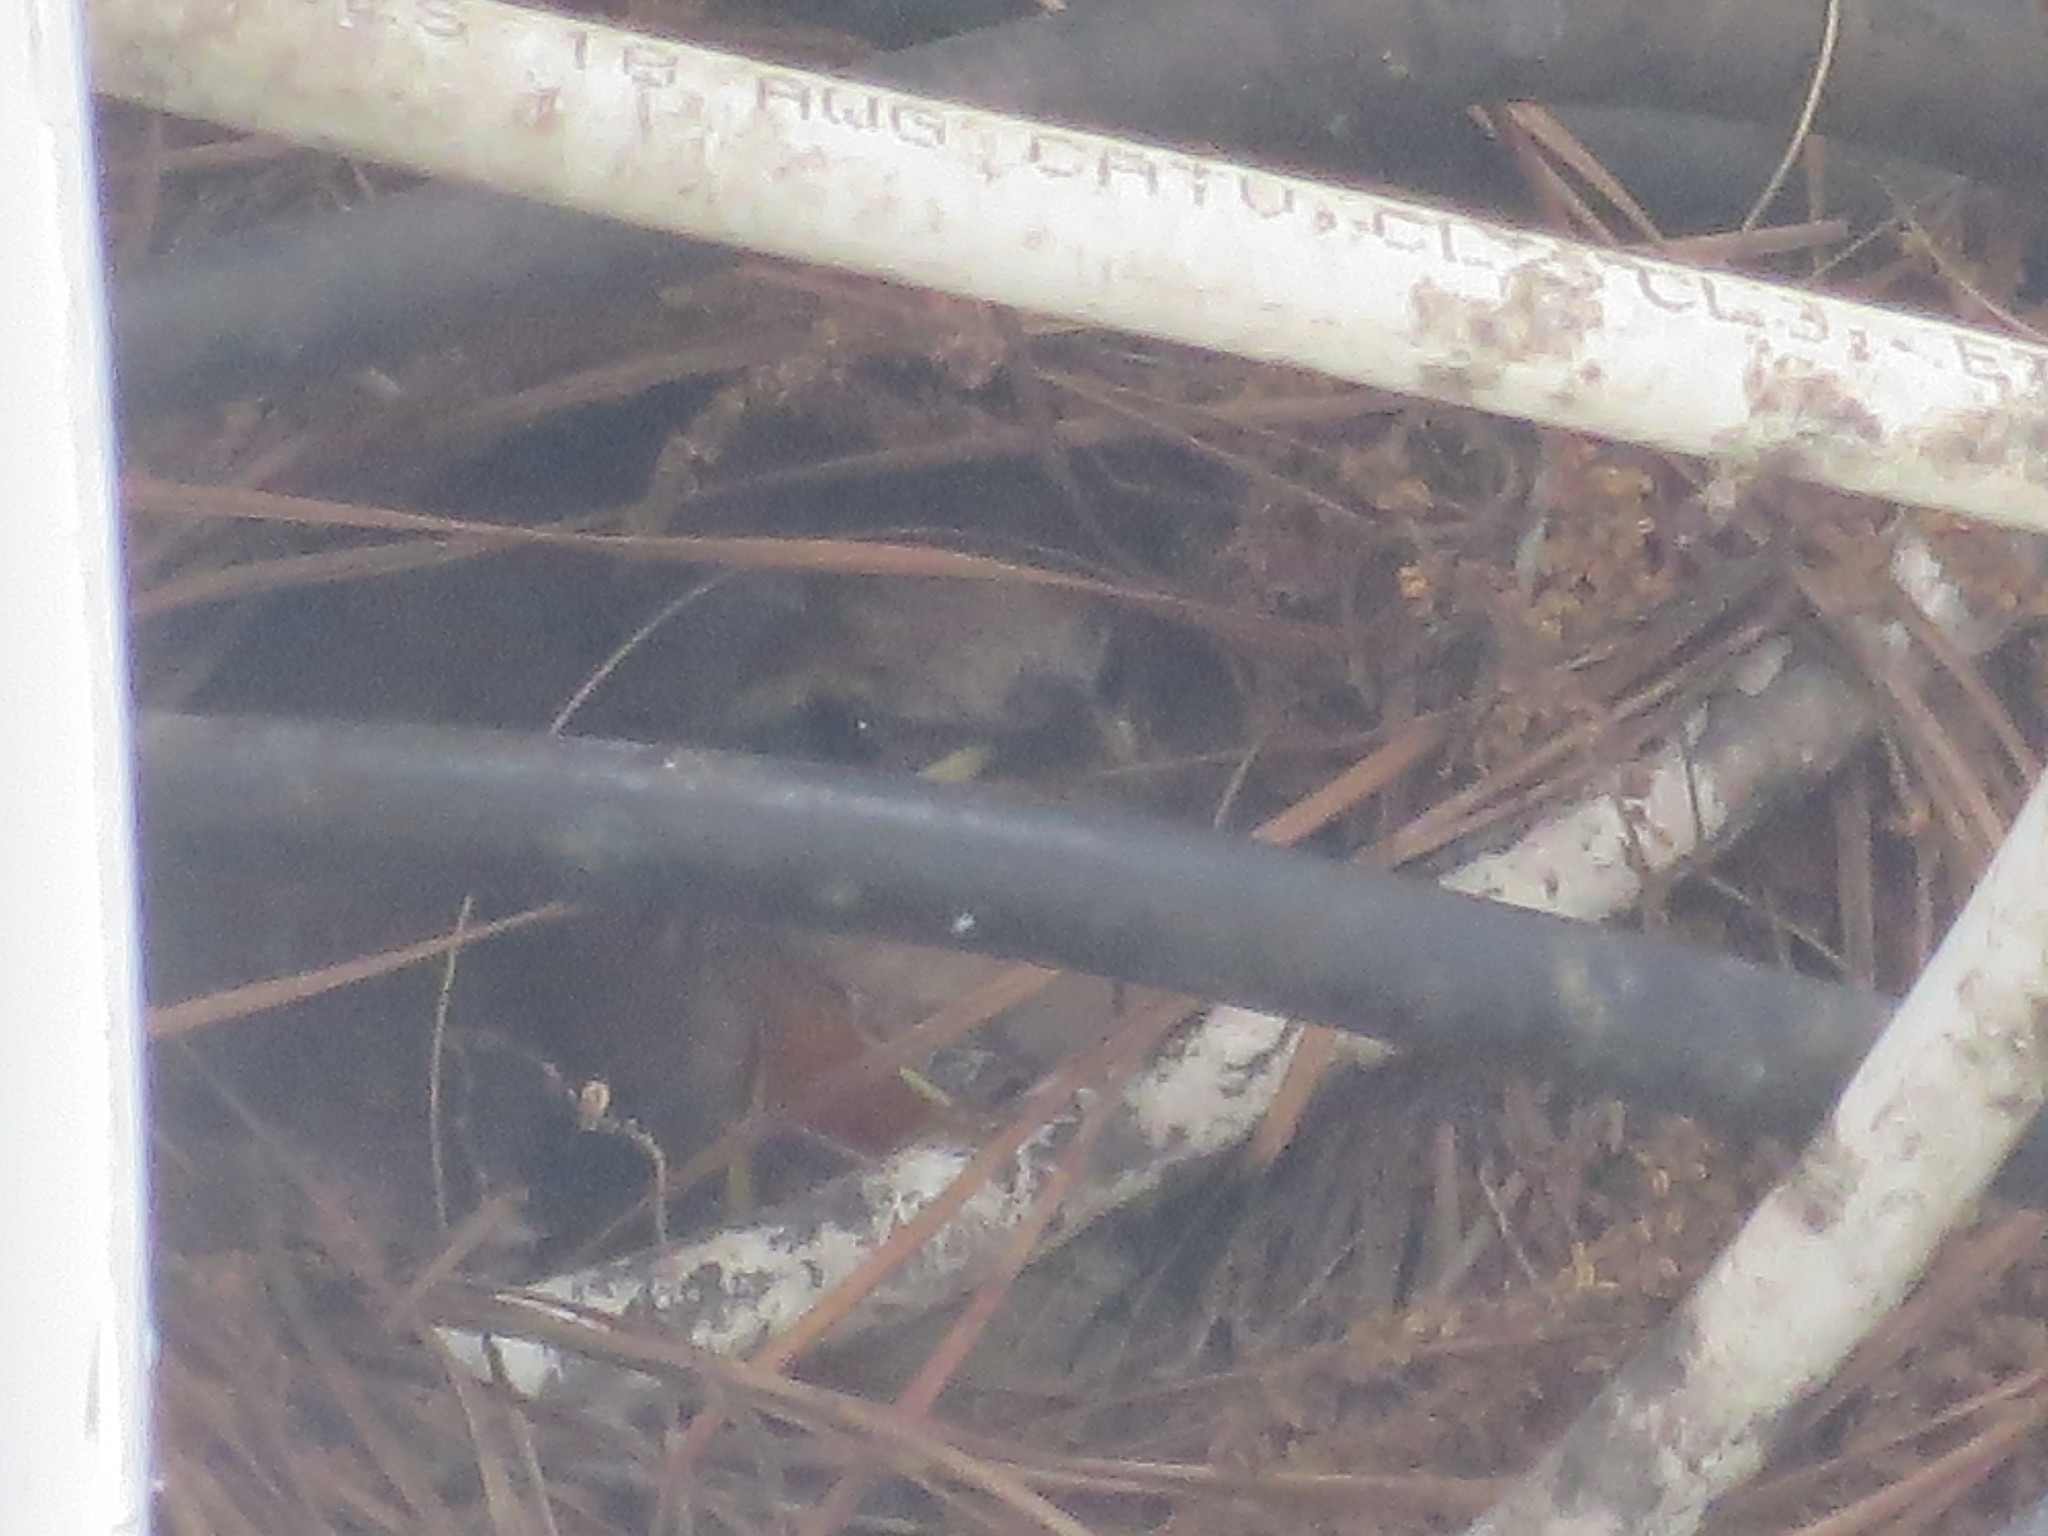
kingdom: Animalia
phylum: Chordata
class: Aves
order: Passeriformes
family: Troglodytidae
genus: Thryothorus
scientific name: Thryothorus ludovicianus
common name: Carolina wren
